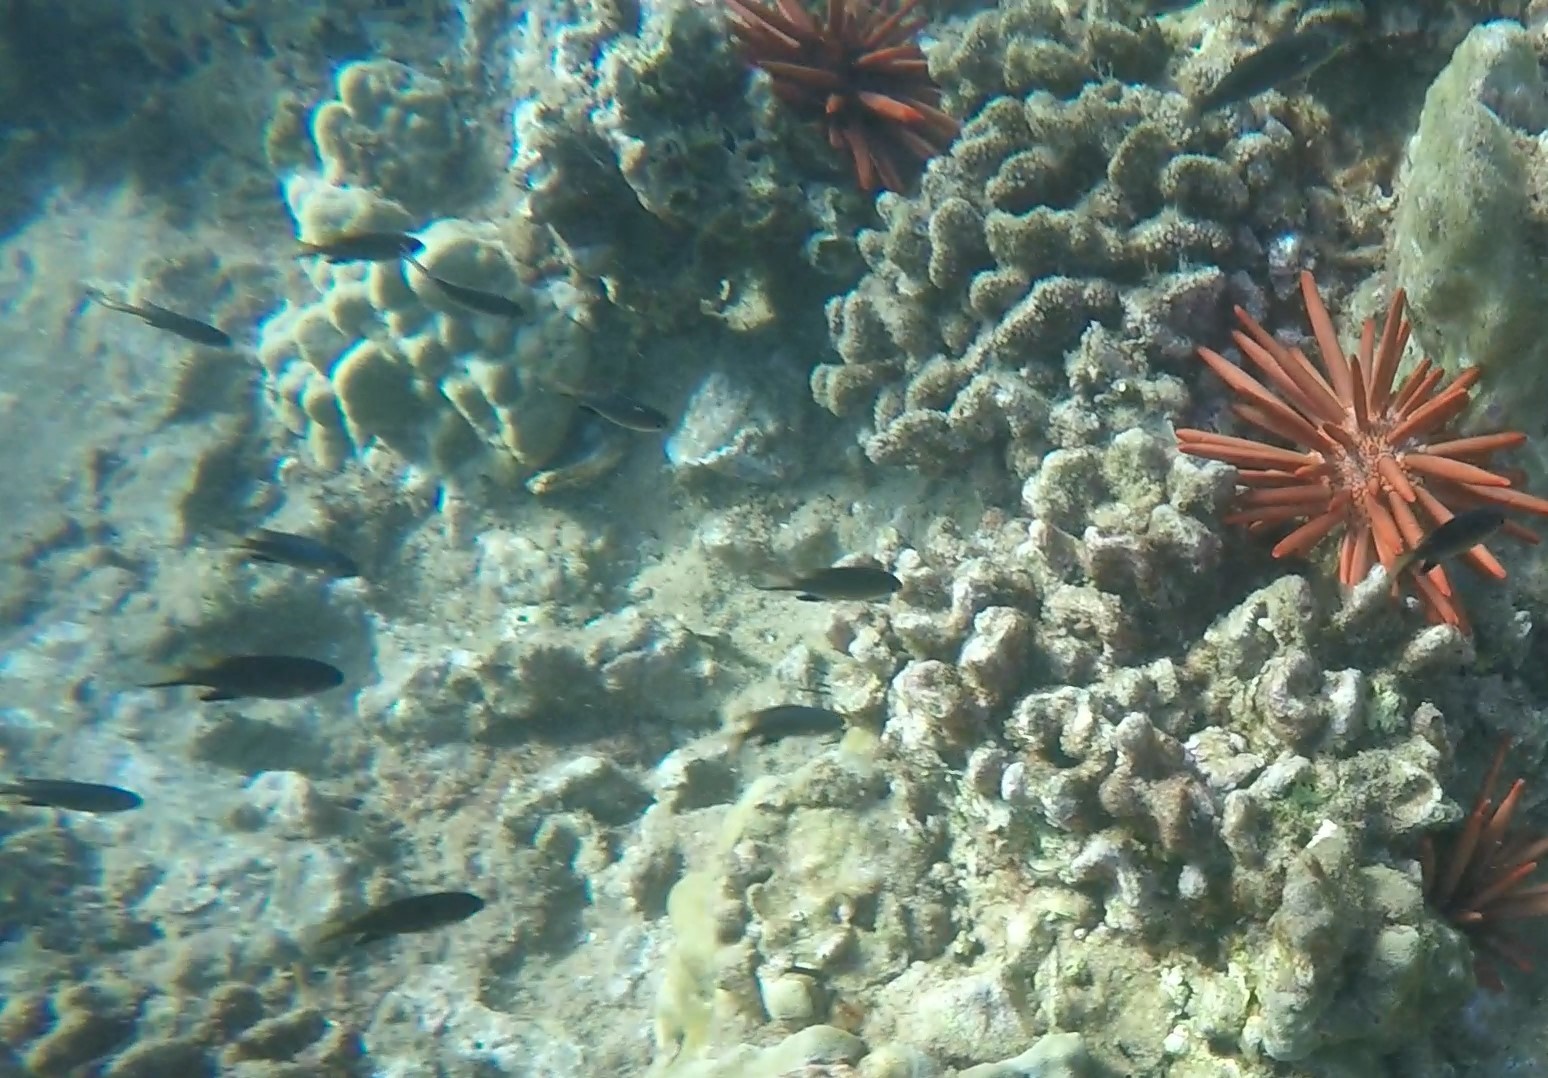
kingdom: Animalia
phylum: Chordata
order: Perciformes
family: Pomacentridae
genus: Chromis
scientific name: Chromis vanderbilti
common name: Vanderbilt's chromis
